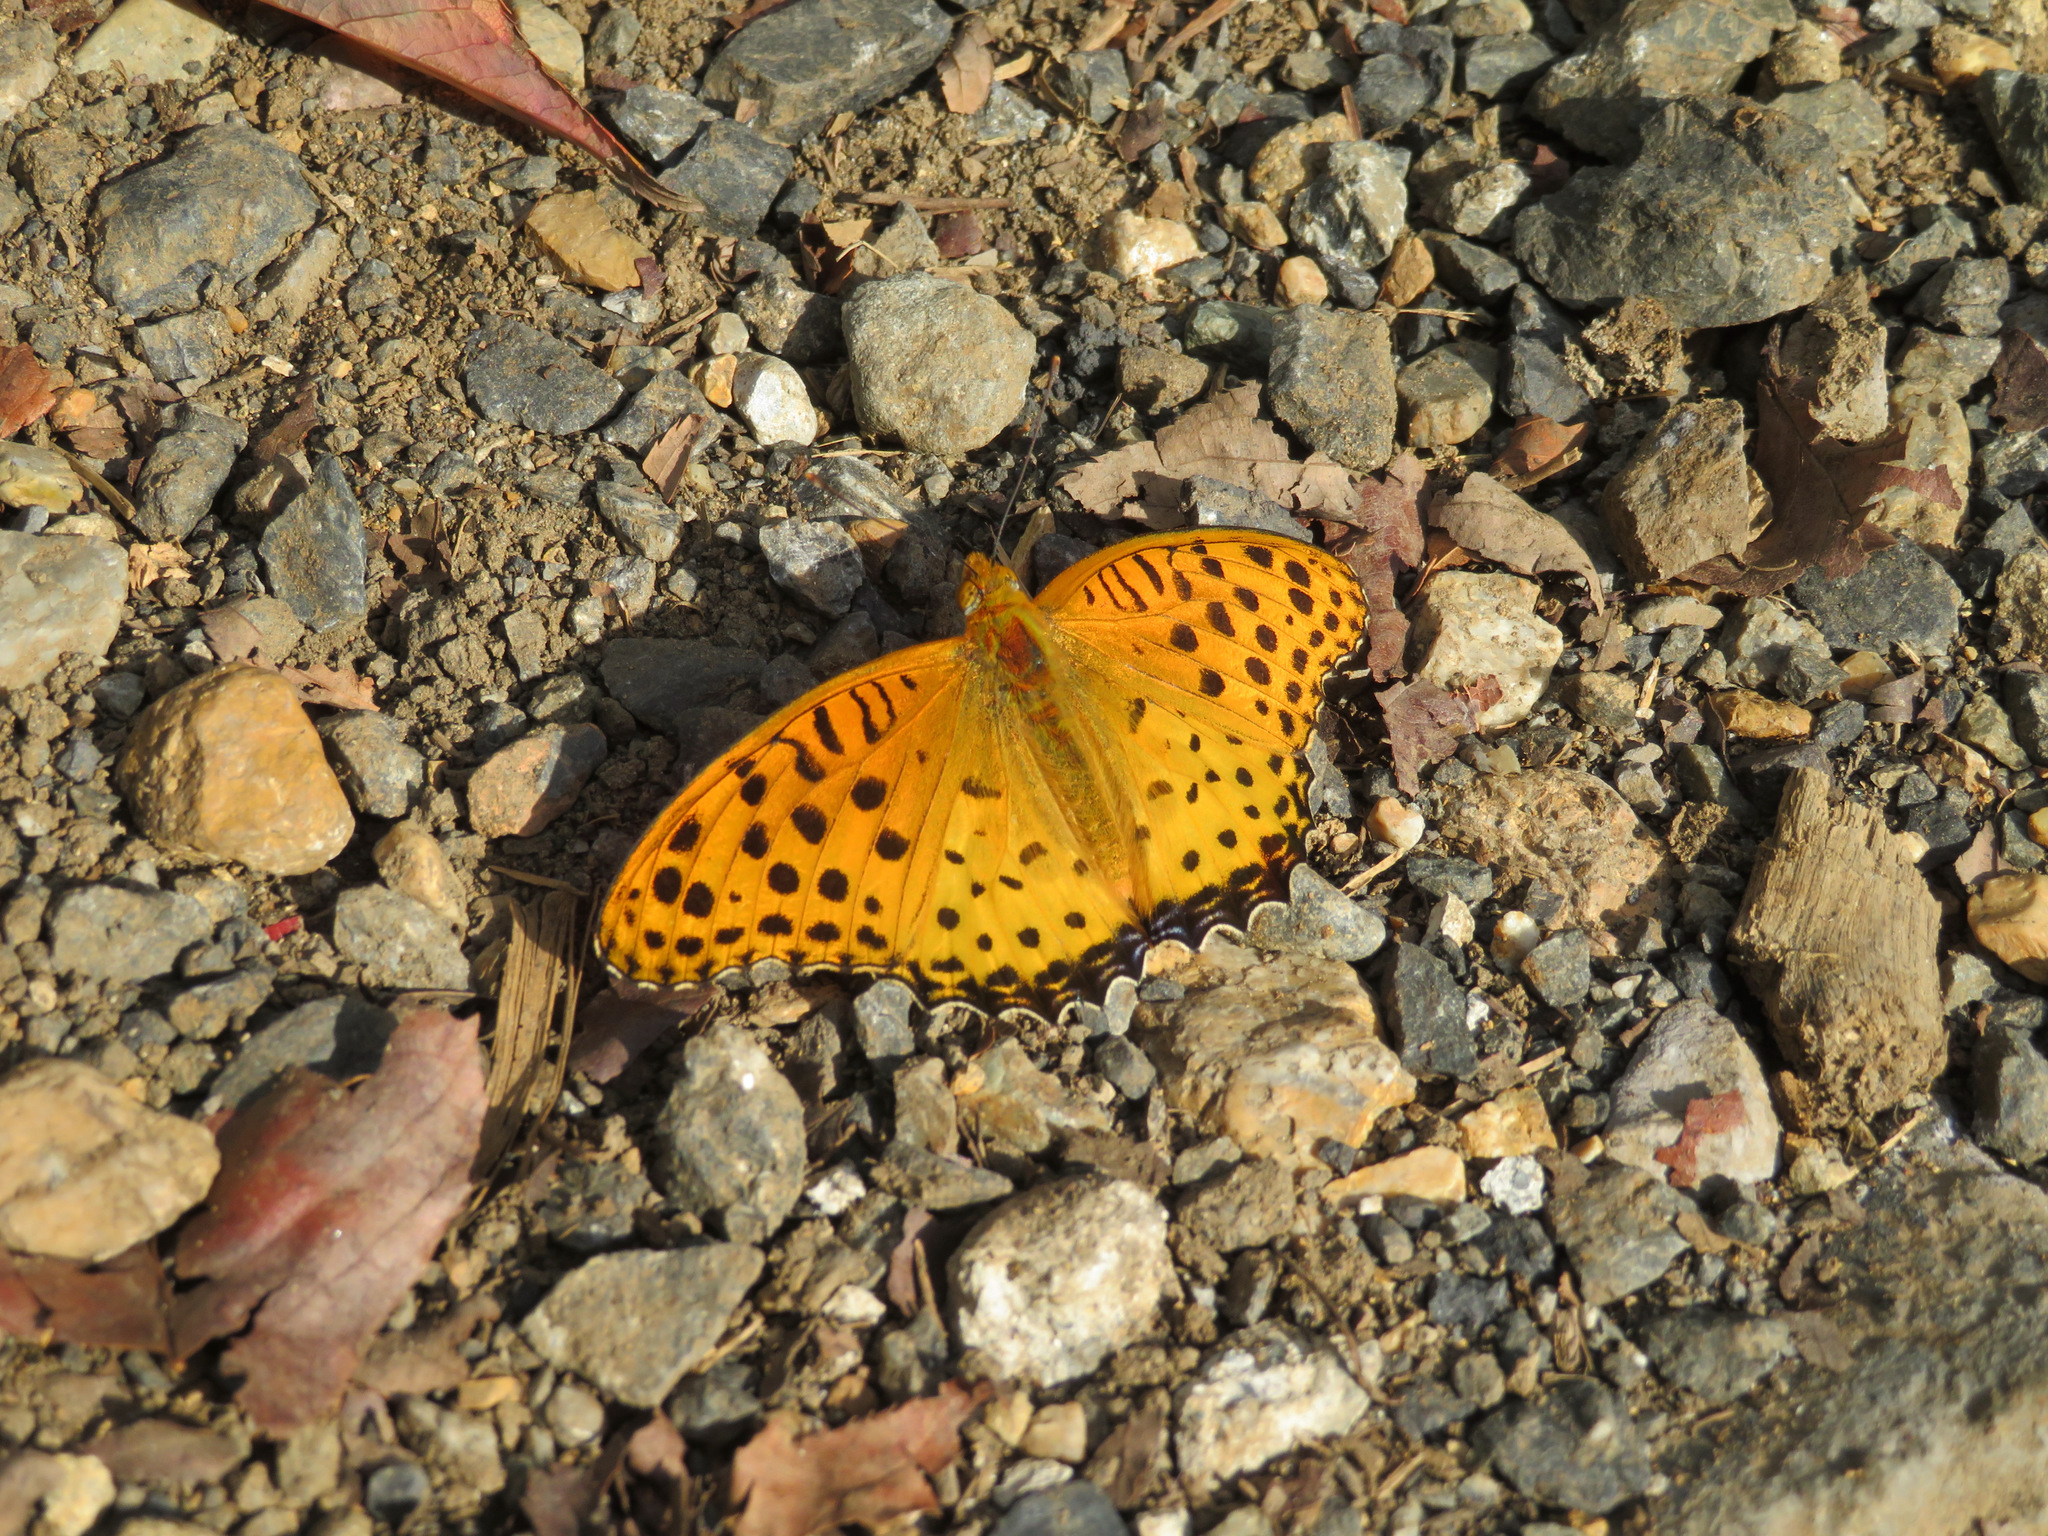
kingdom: Animalia
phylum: Arthropoda
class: Insecta
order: Lepidoptera
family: Nymphalidae
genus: Argynnis
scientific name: Argynnis hyperbius
